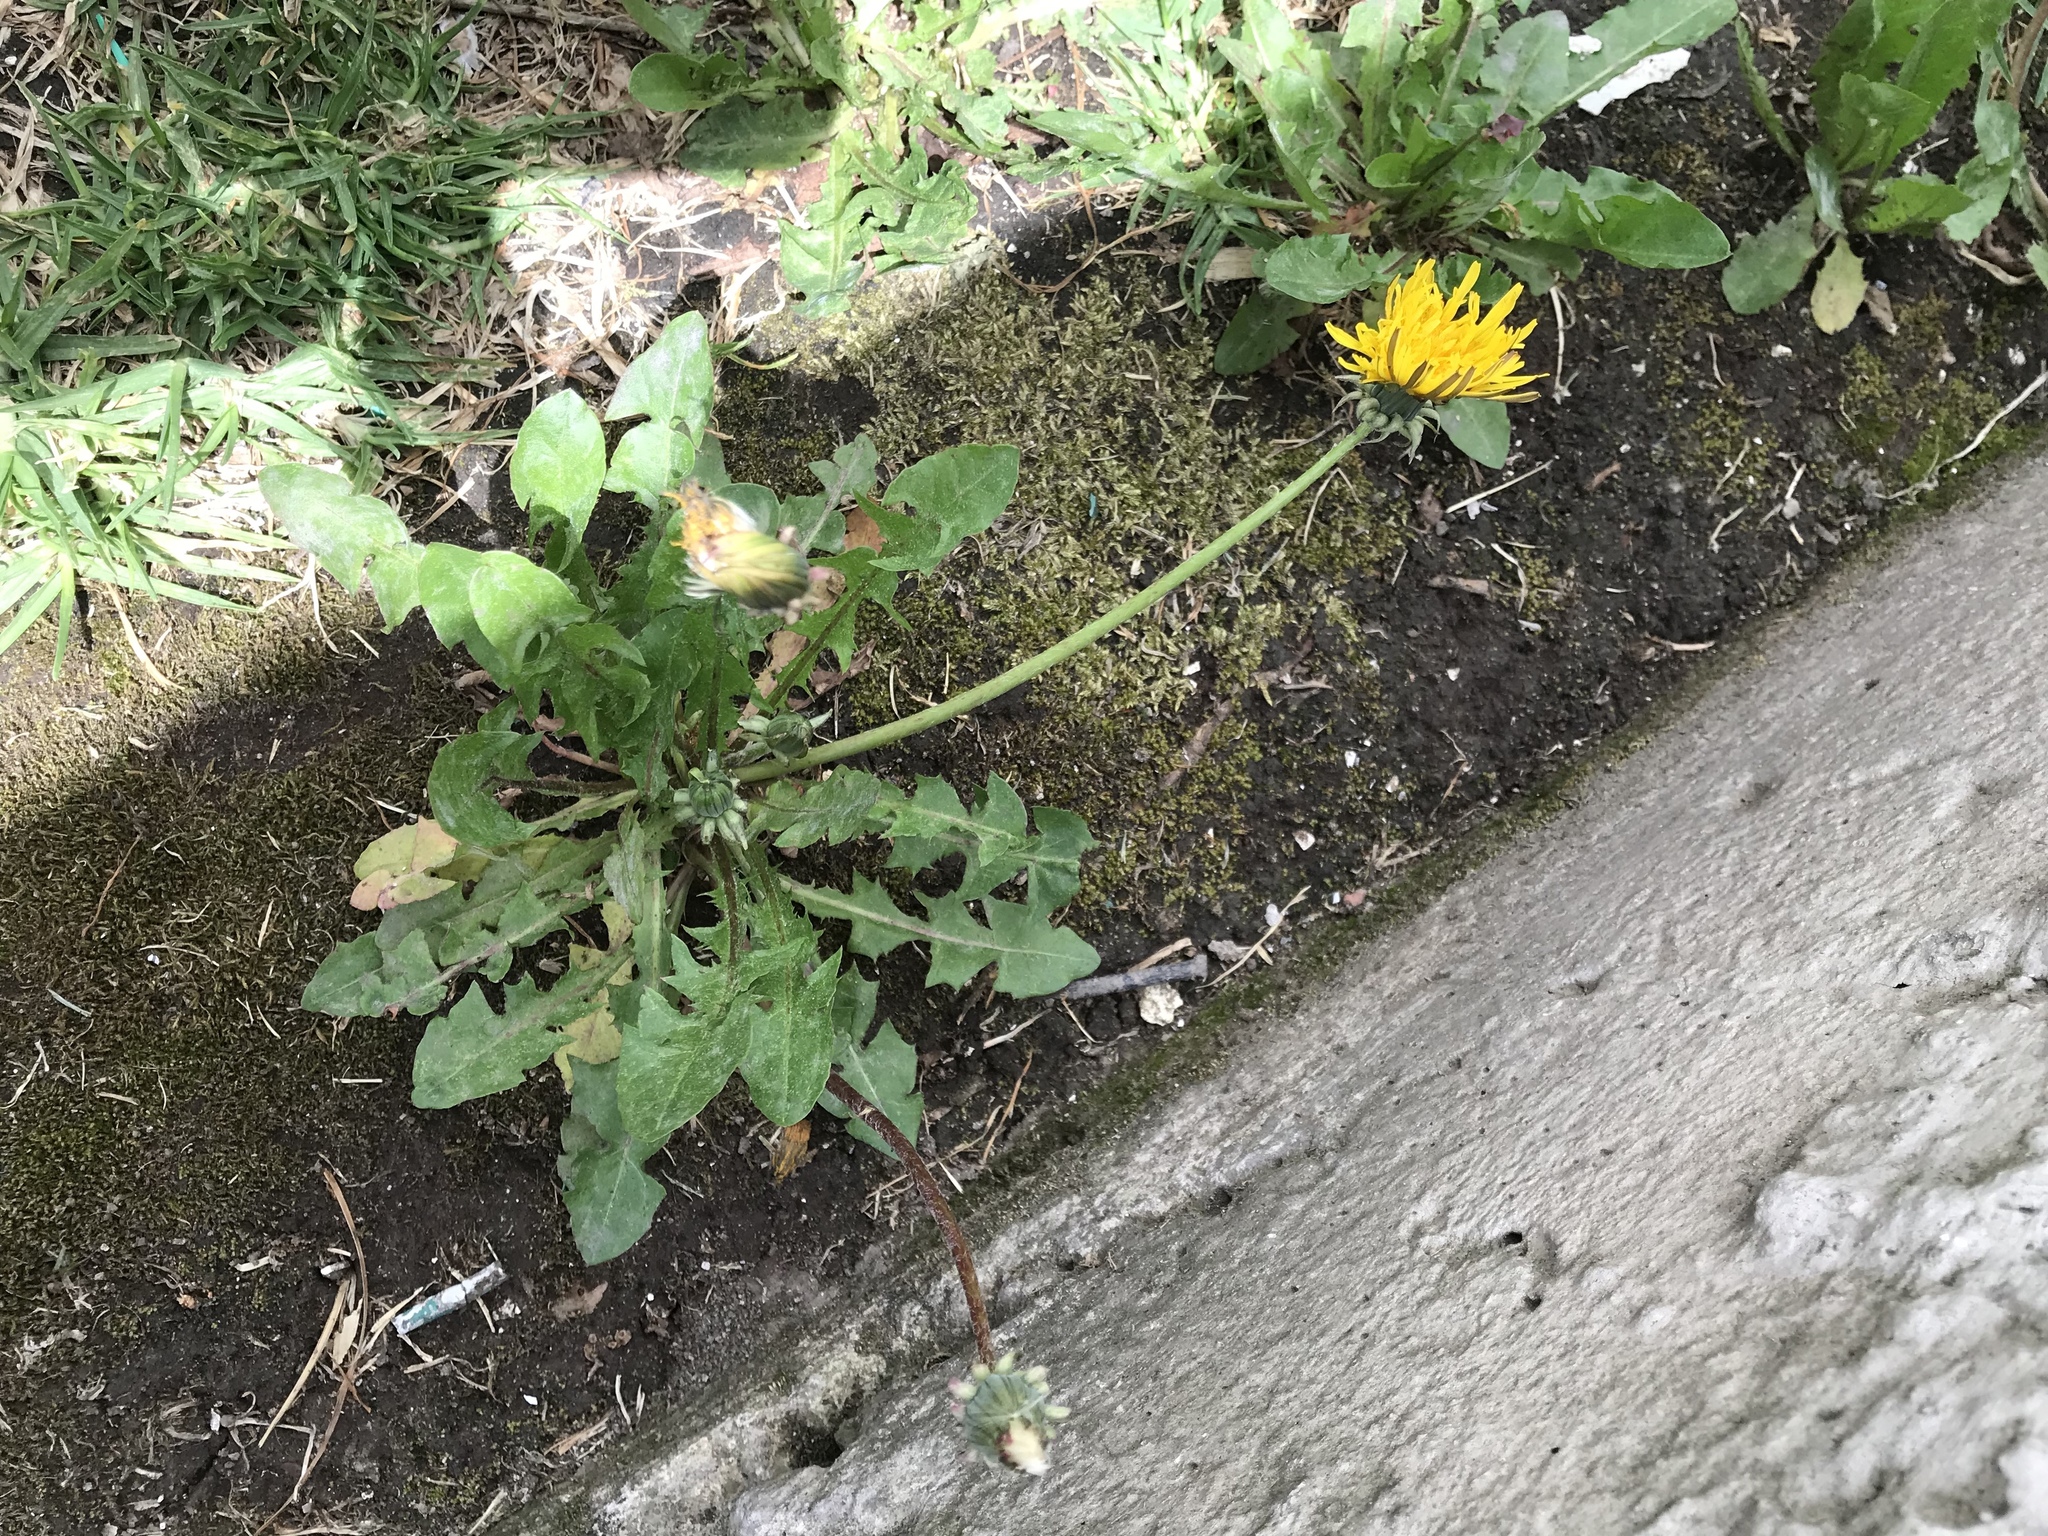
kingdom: Plantae
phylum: Tracheophyta
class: Magnoliopsida
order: Asterales
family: Asteraceae
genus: Taraxacum
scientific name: Taraxacum officinale
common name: Common dandelion
